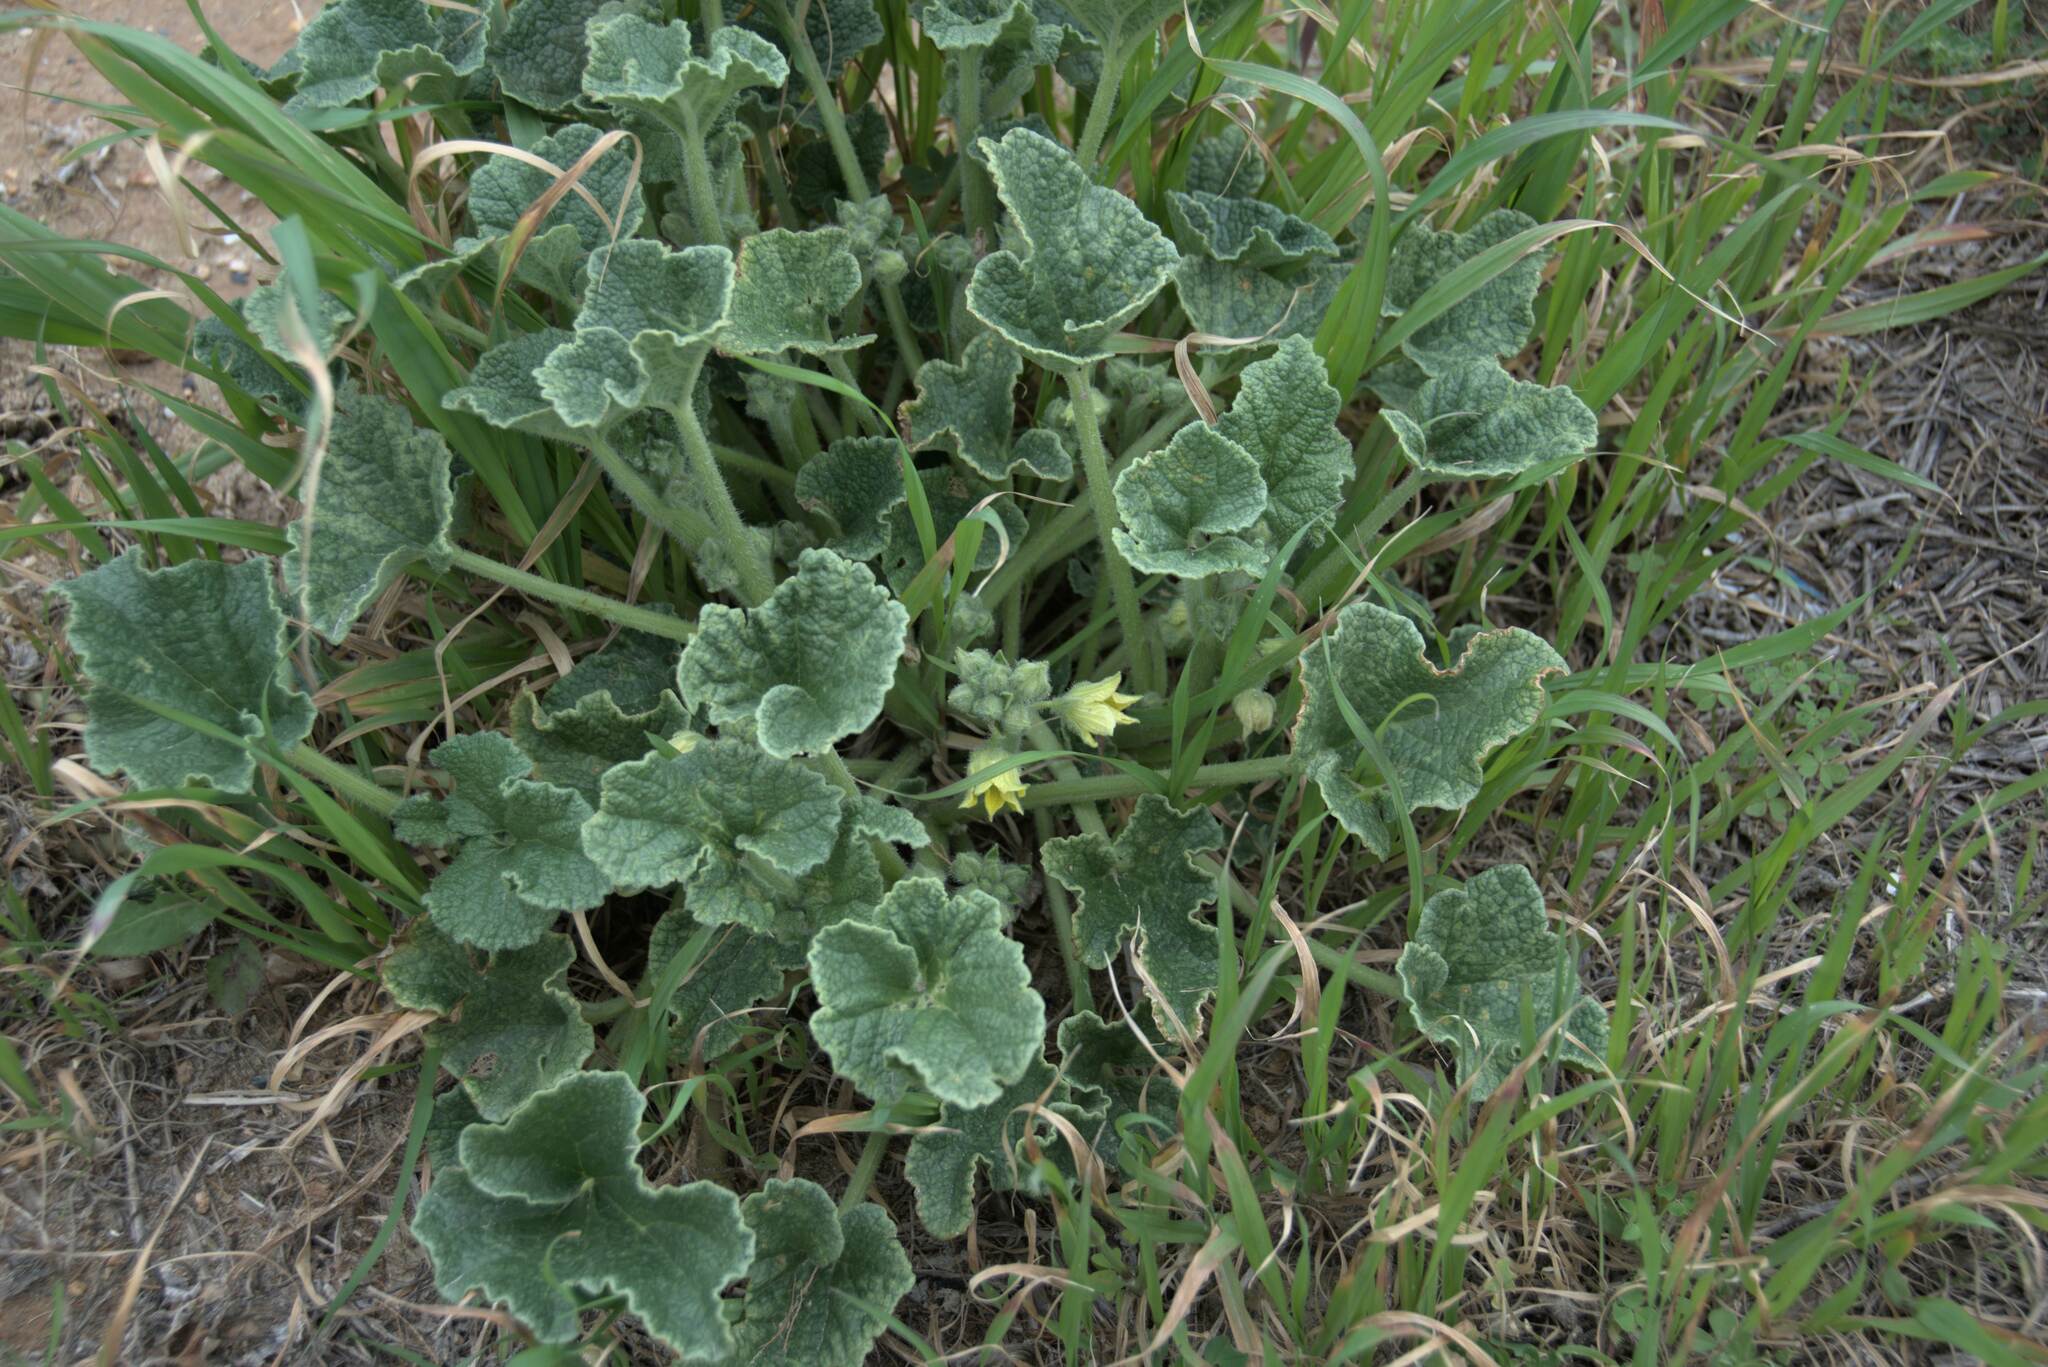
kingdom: Plantae
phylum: Tracheophyta
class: Magnoliopsida
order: Cucurbitales
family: Cucurbitaceae
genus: Ecballium
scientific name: Ecballium elaterium
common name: Squirting cucumber
